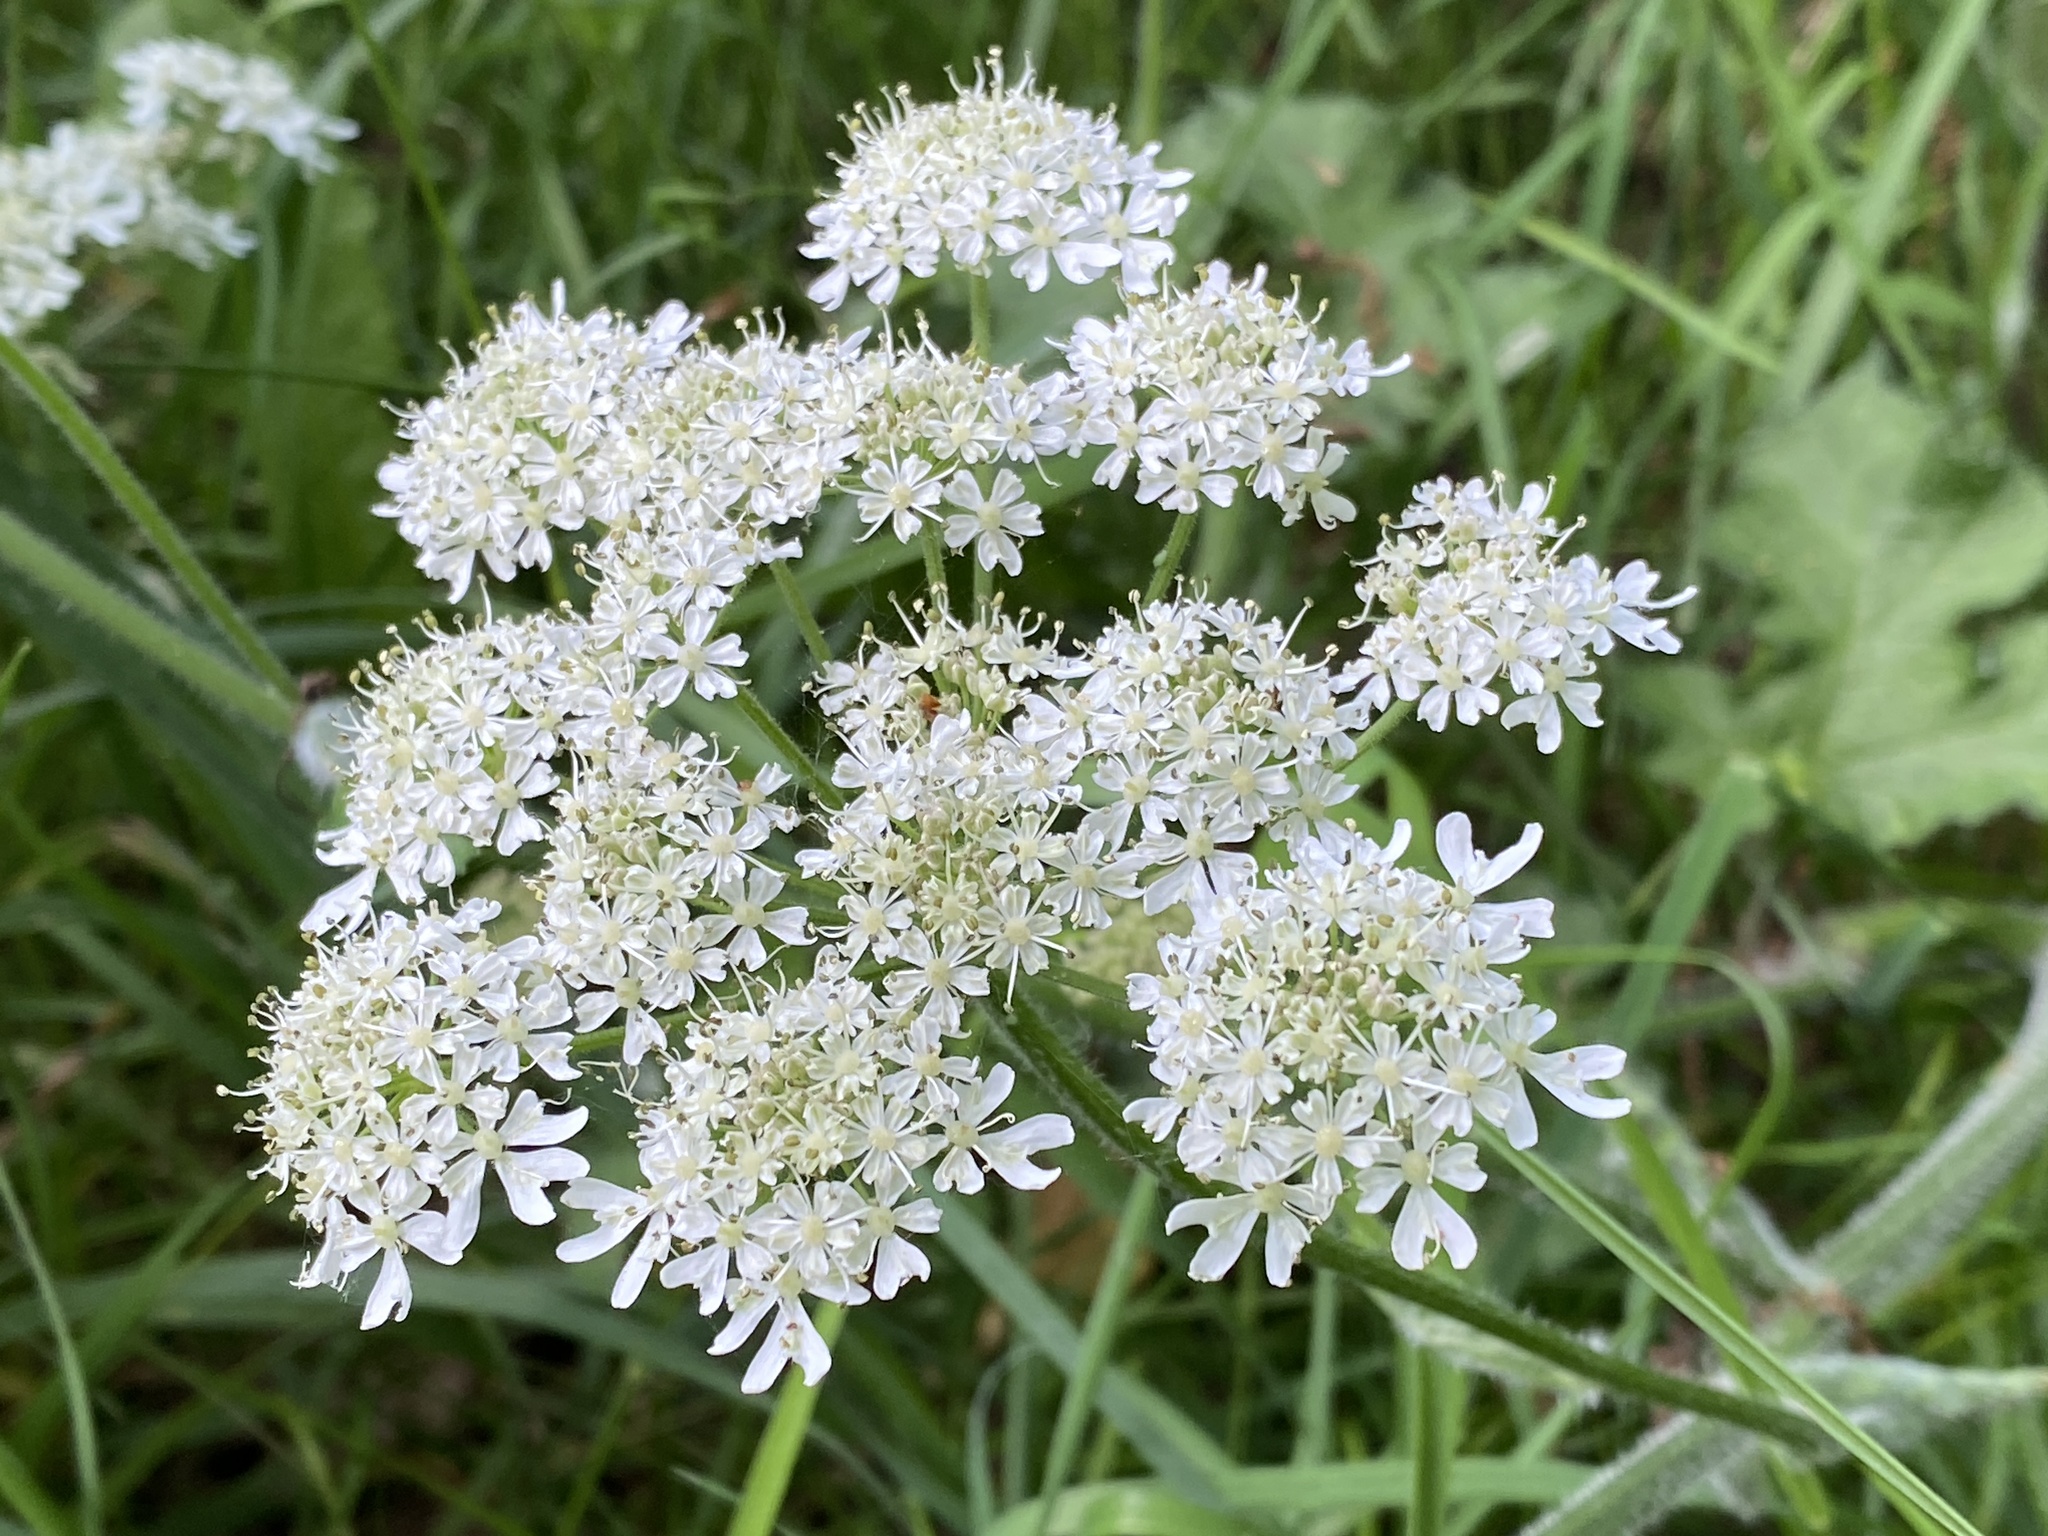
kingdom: Plantae
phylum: Tracheophyta
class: Magnoliopsida
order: Apiales
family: Apiaceae
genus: Heracleum
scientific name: Heracleum sphondylium
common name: Hogweed
